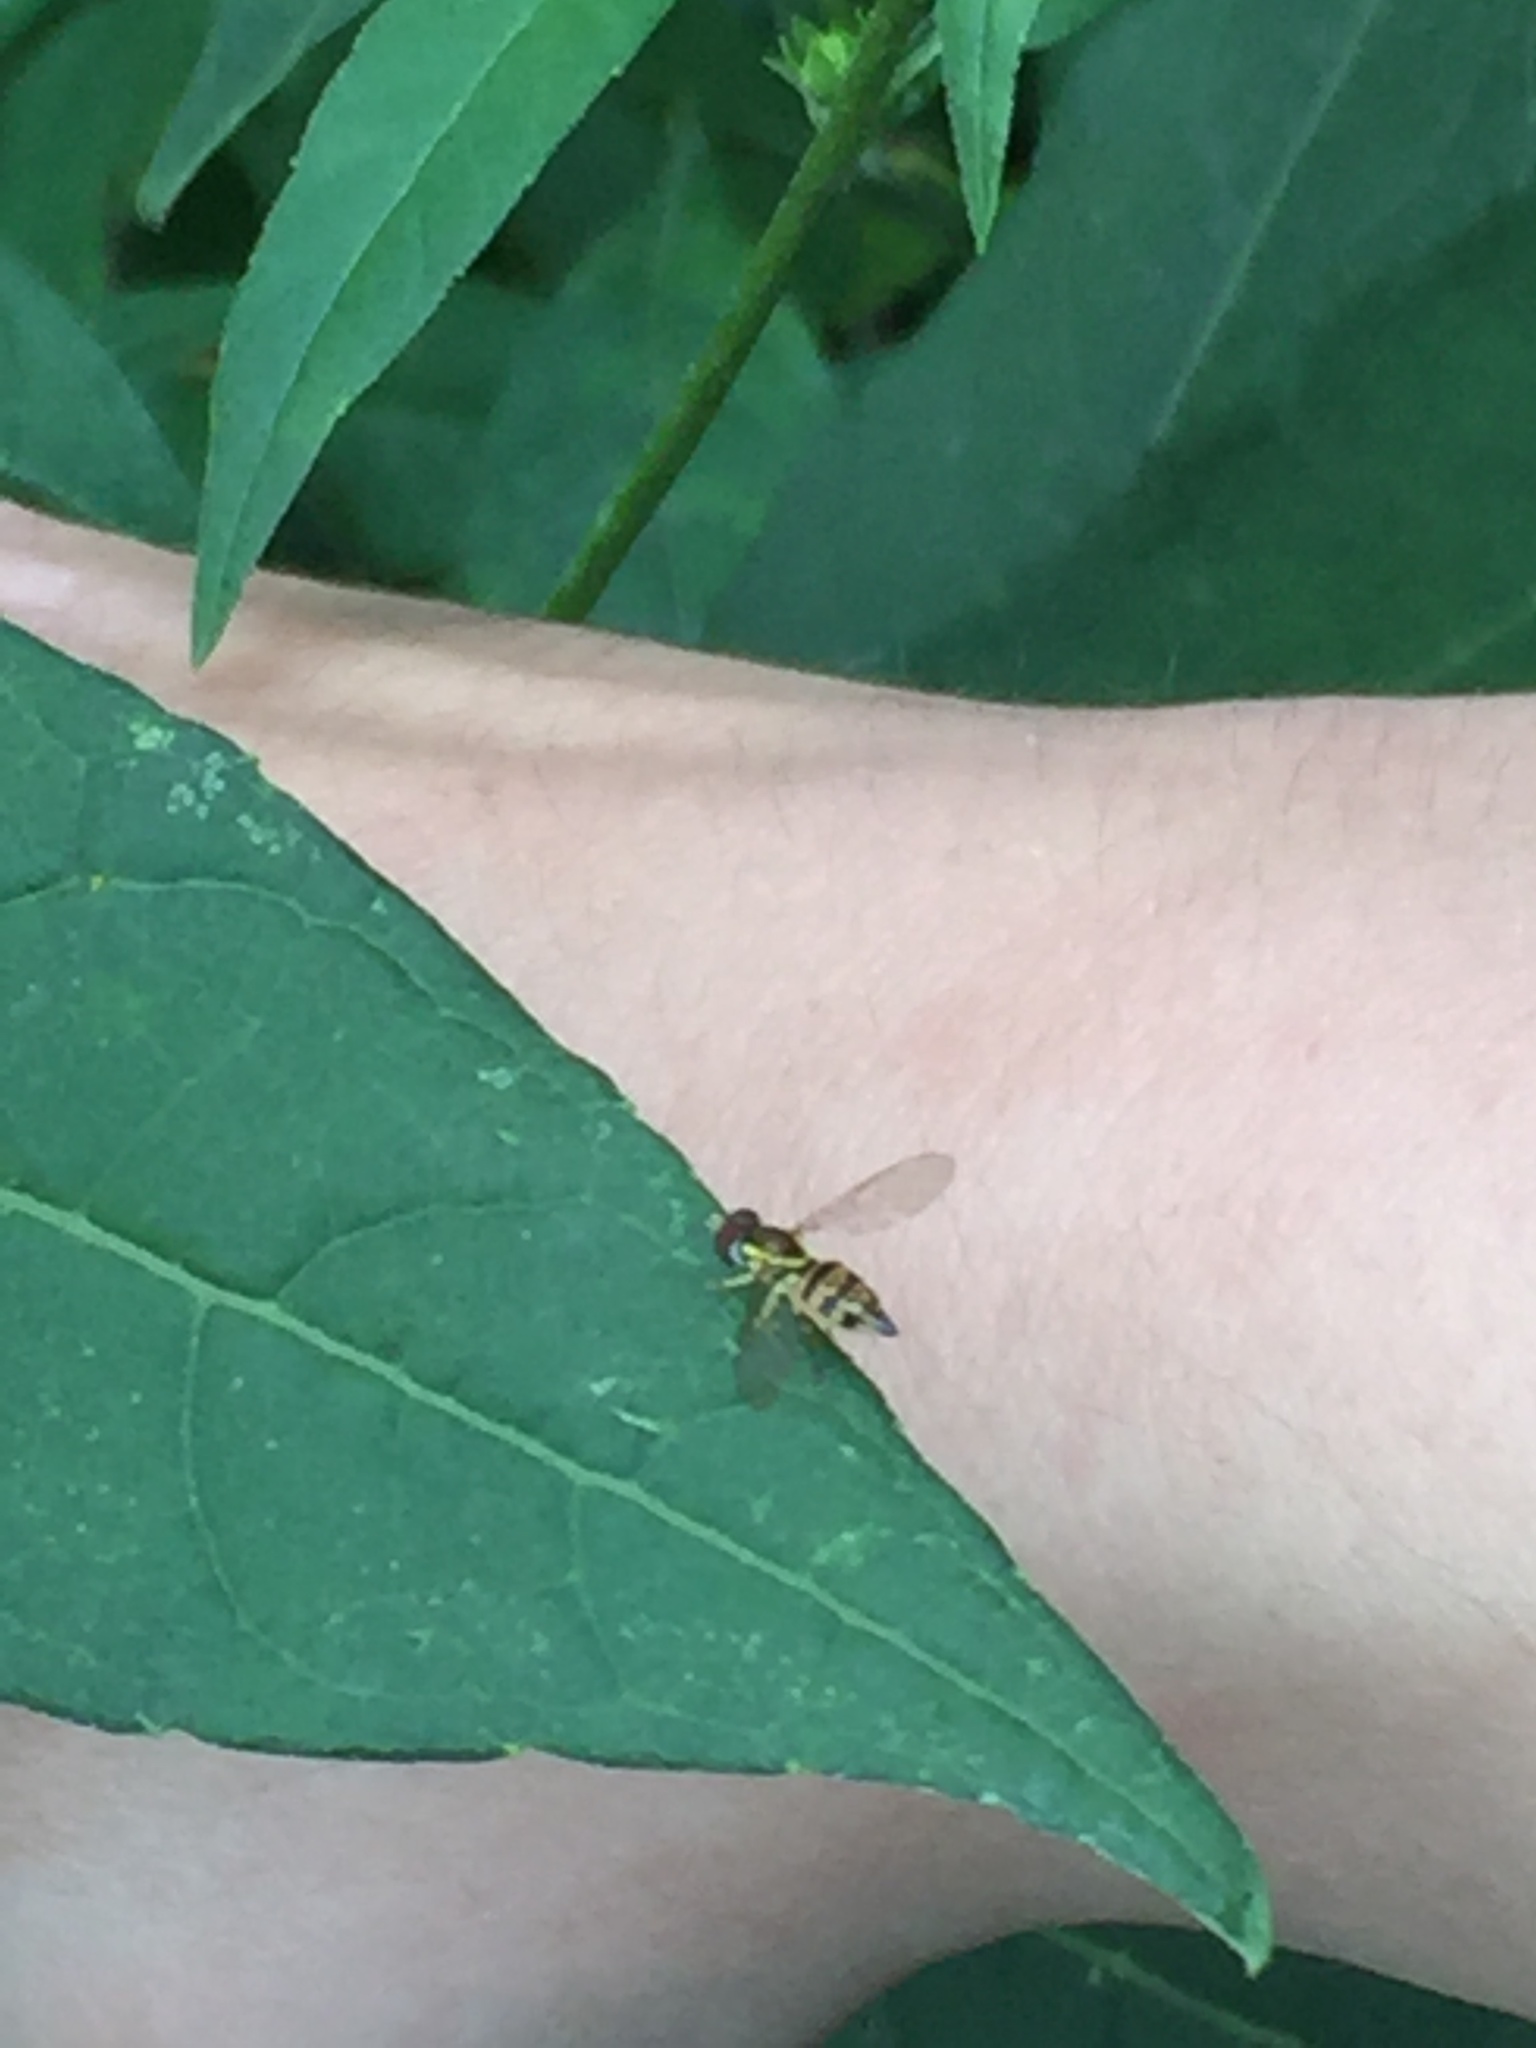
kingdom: Animalia
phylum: Arthropoda
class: Insecta
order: Diptera
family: Syrphidae
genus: Toxomerus
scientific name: Toxomerus geminatus
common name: Eastern calligrapher
